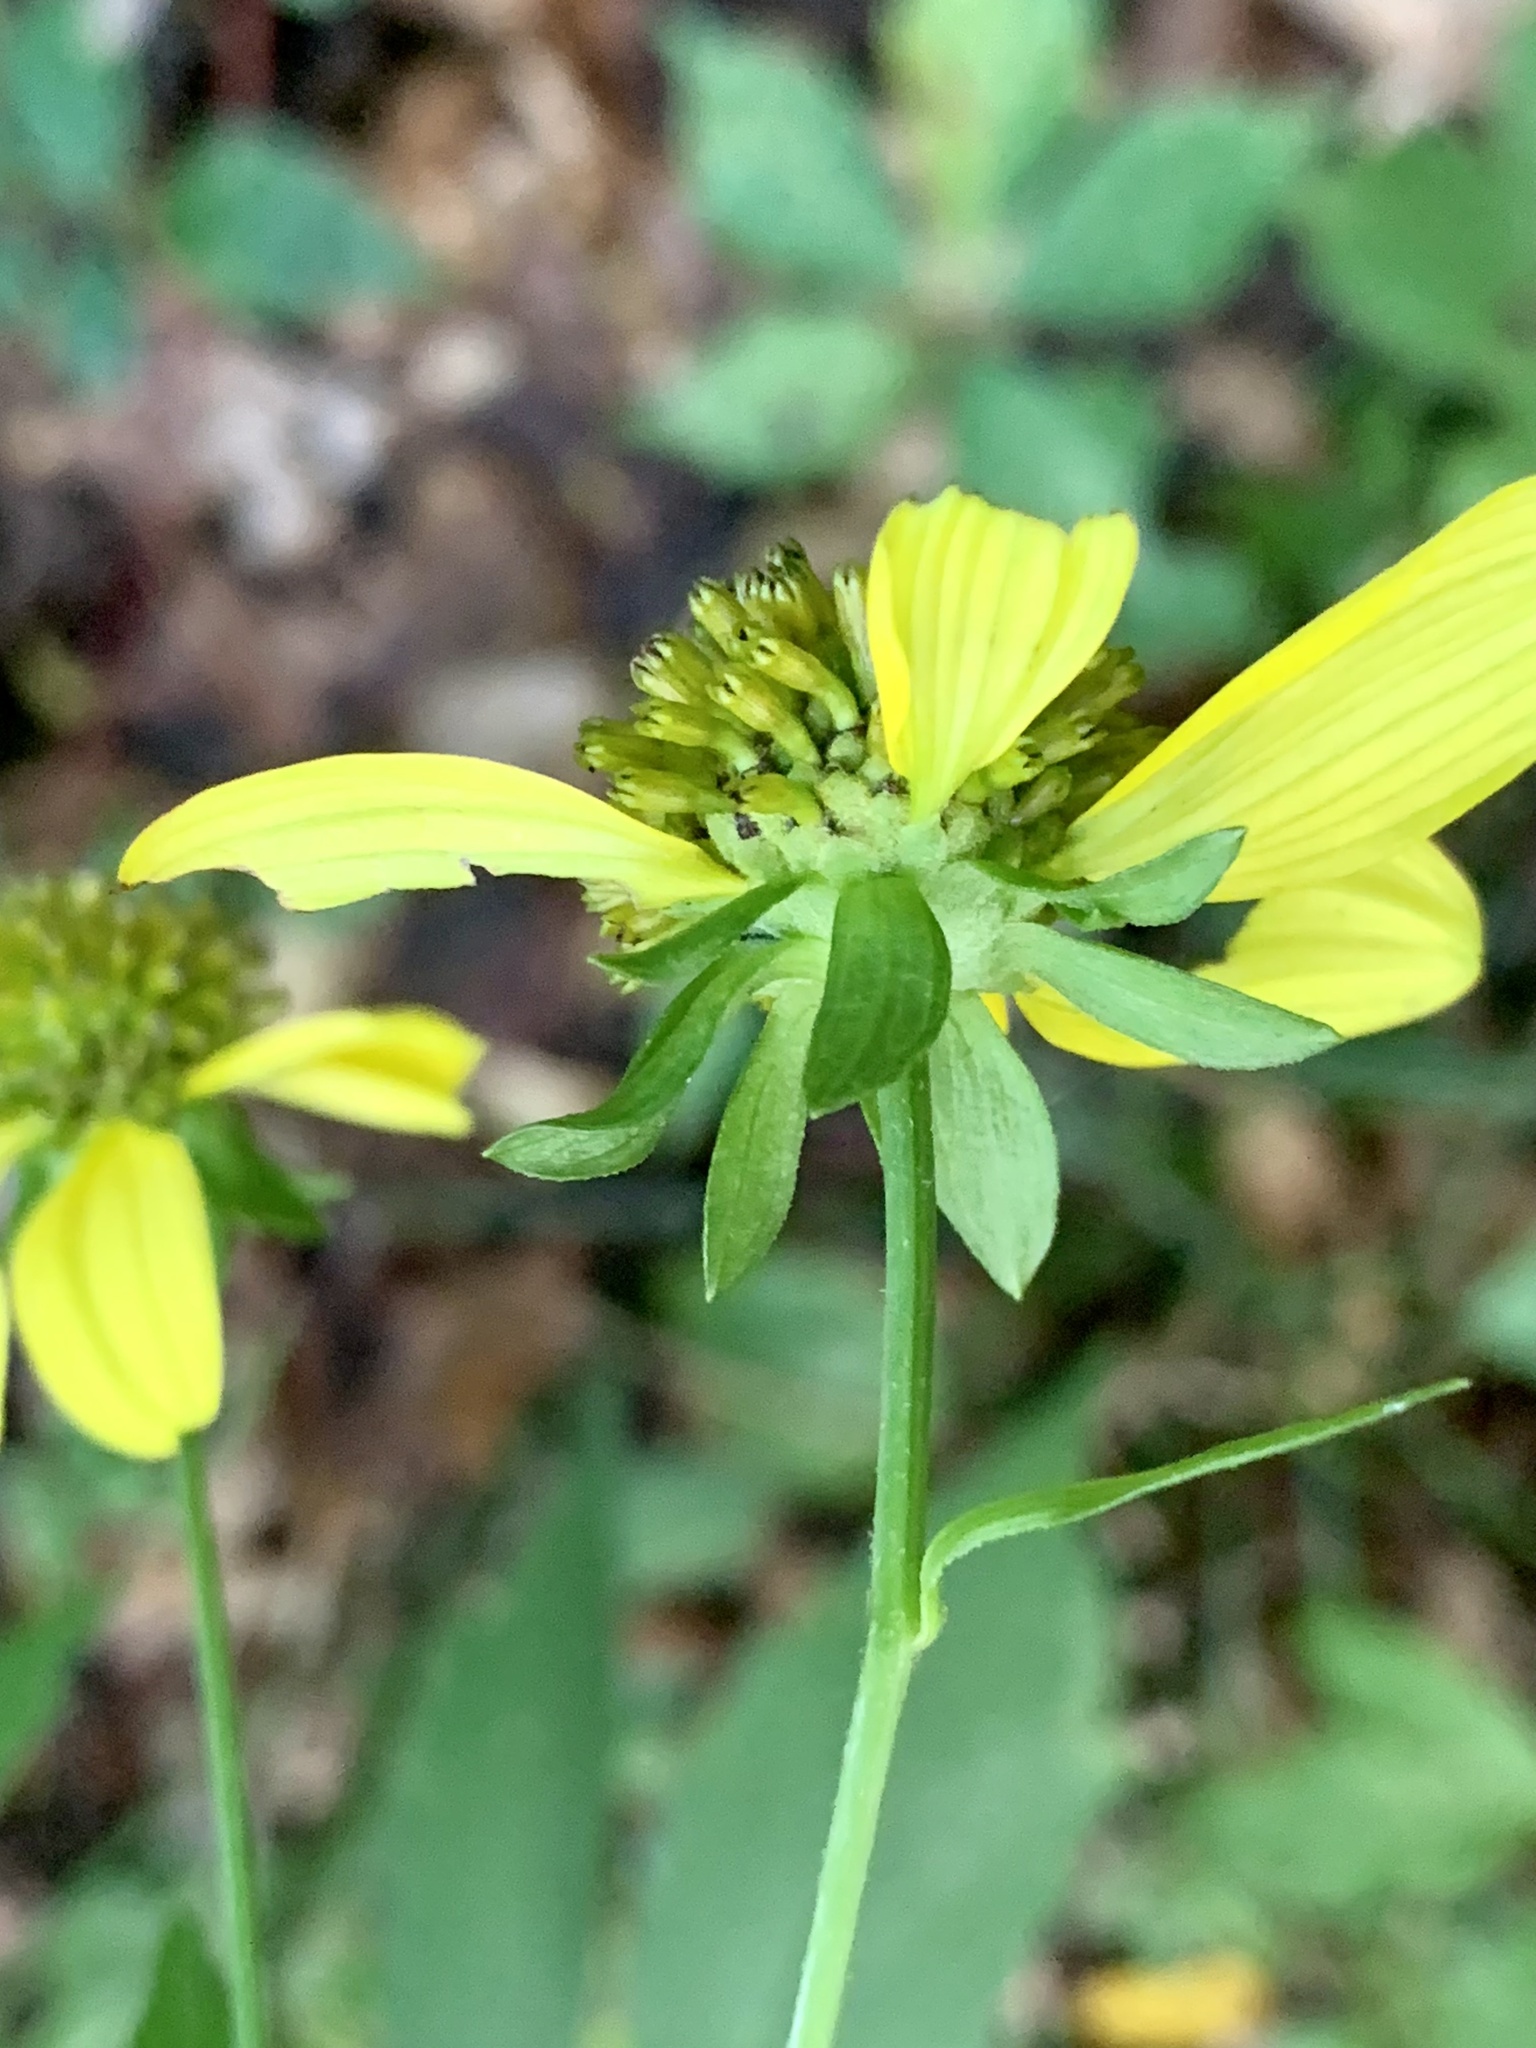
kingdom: Plantae
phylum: Tracheophyta
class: Magnoliopsida
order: Asterales
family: Asteraceae
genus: Rudbeckia
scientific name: Rudbeckia laciniata
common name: Coneflower
